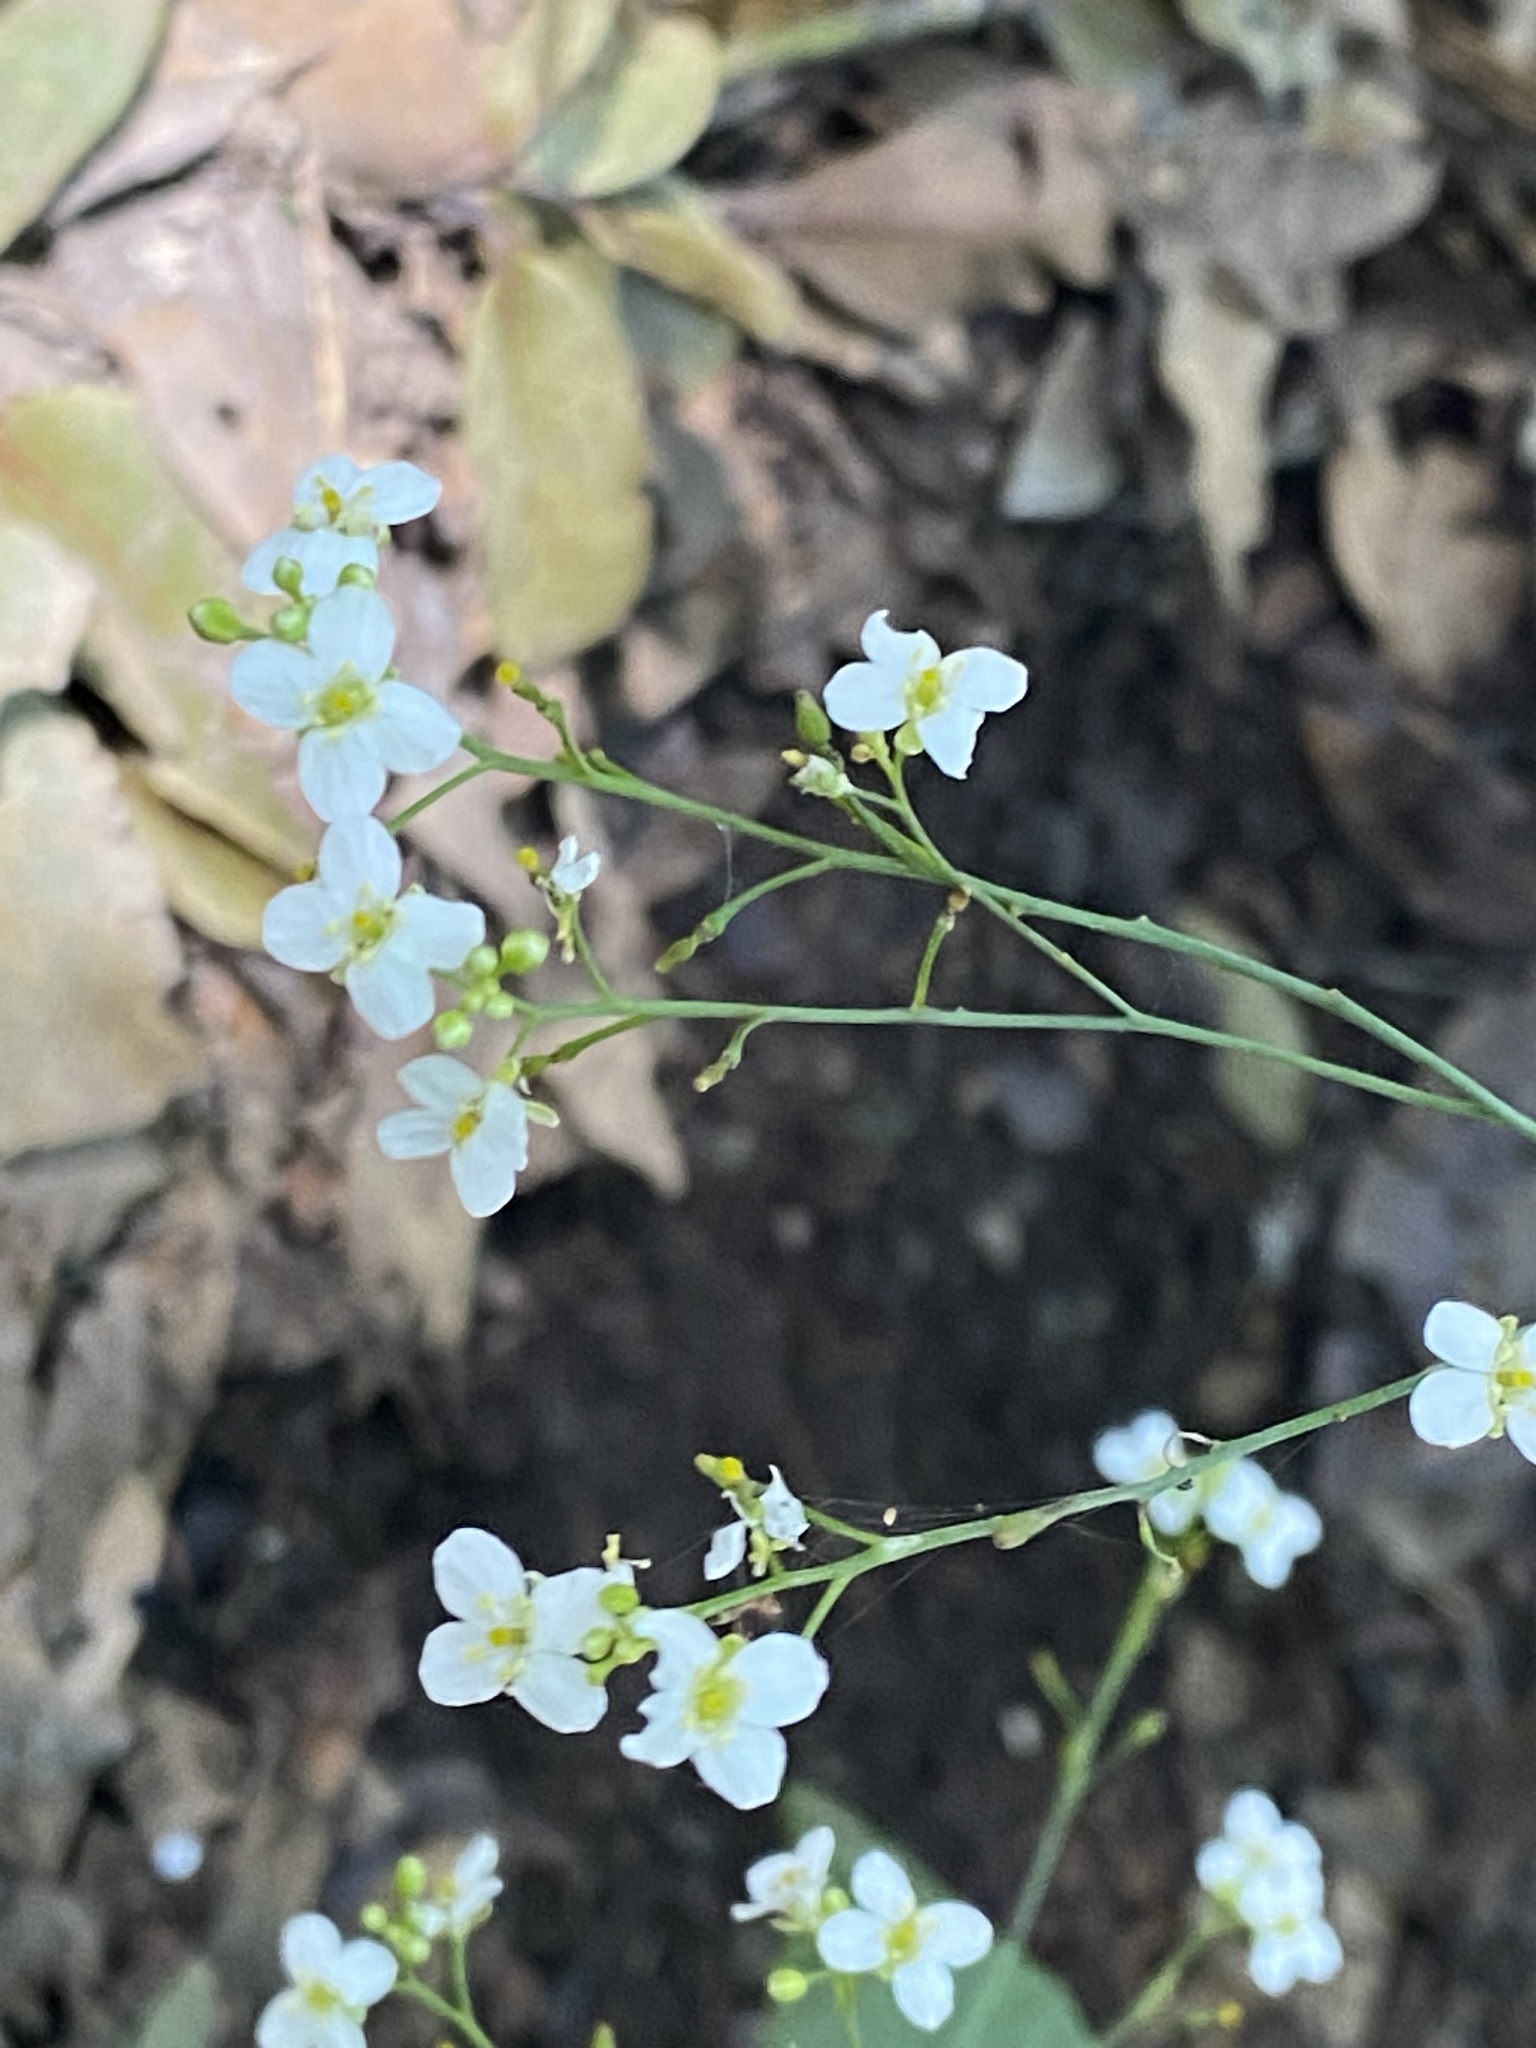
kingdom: Plantae
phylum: Tracheophyta
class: Magnoliopsida
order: Brassicales
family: Brassicaceae
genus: Crambe
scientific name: Crambe strigosa
